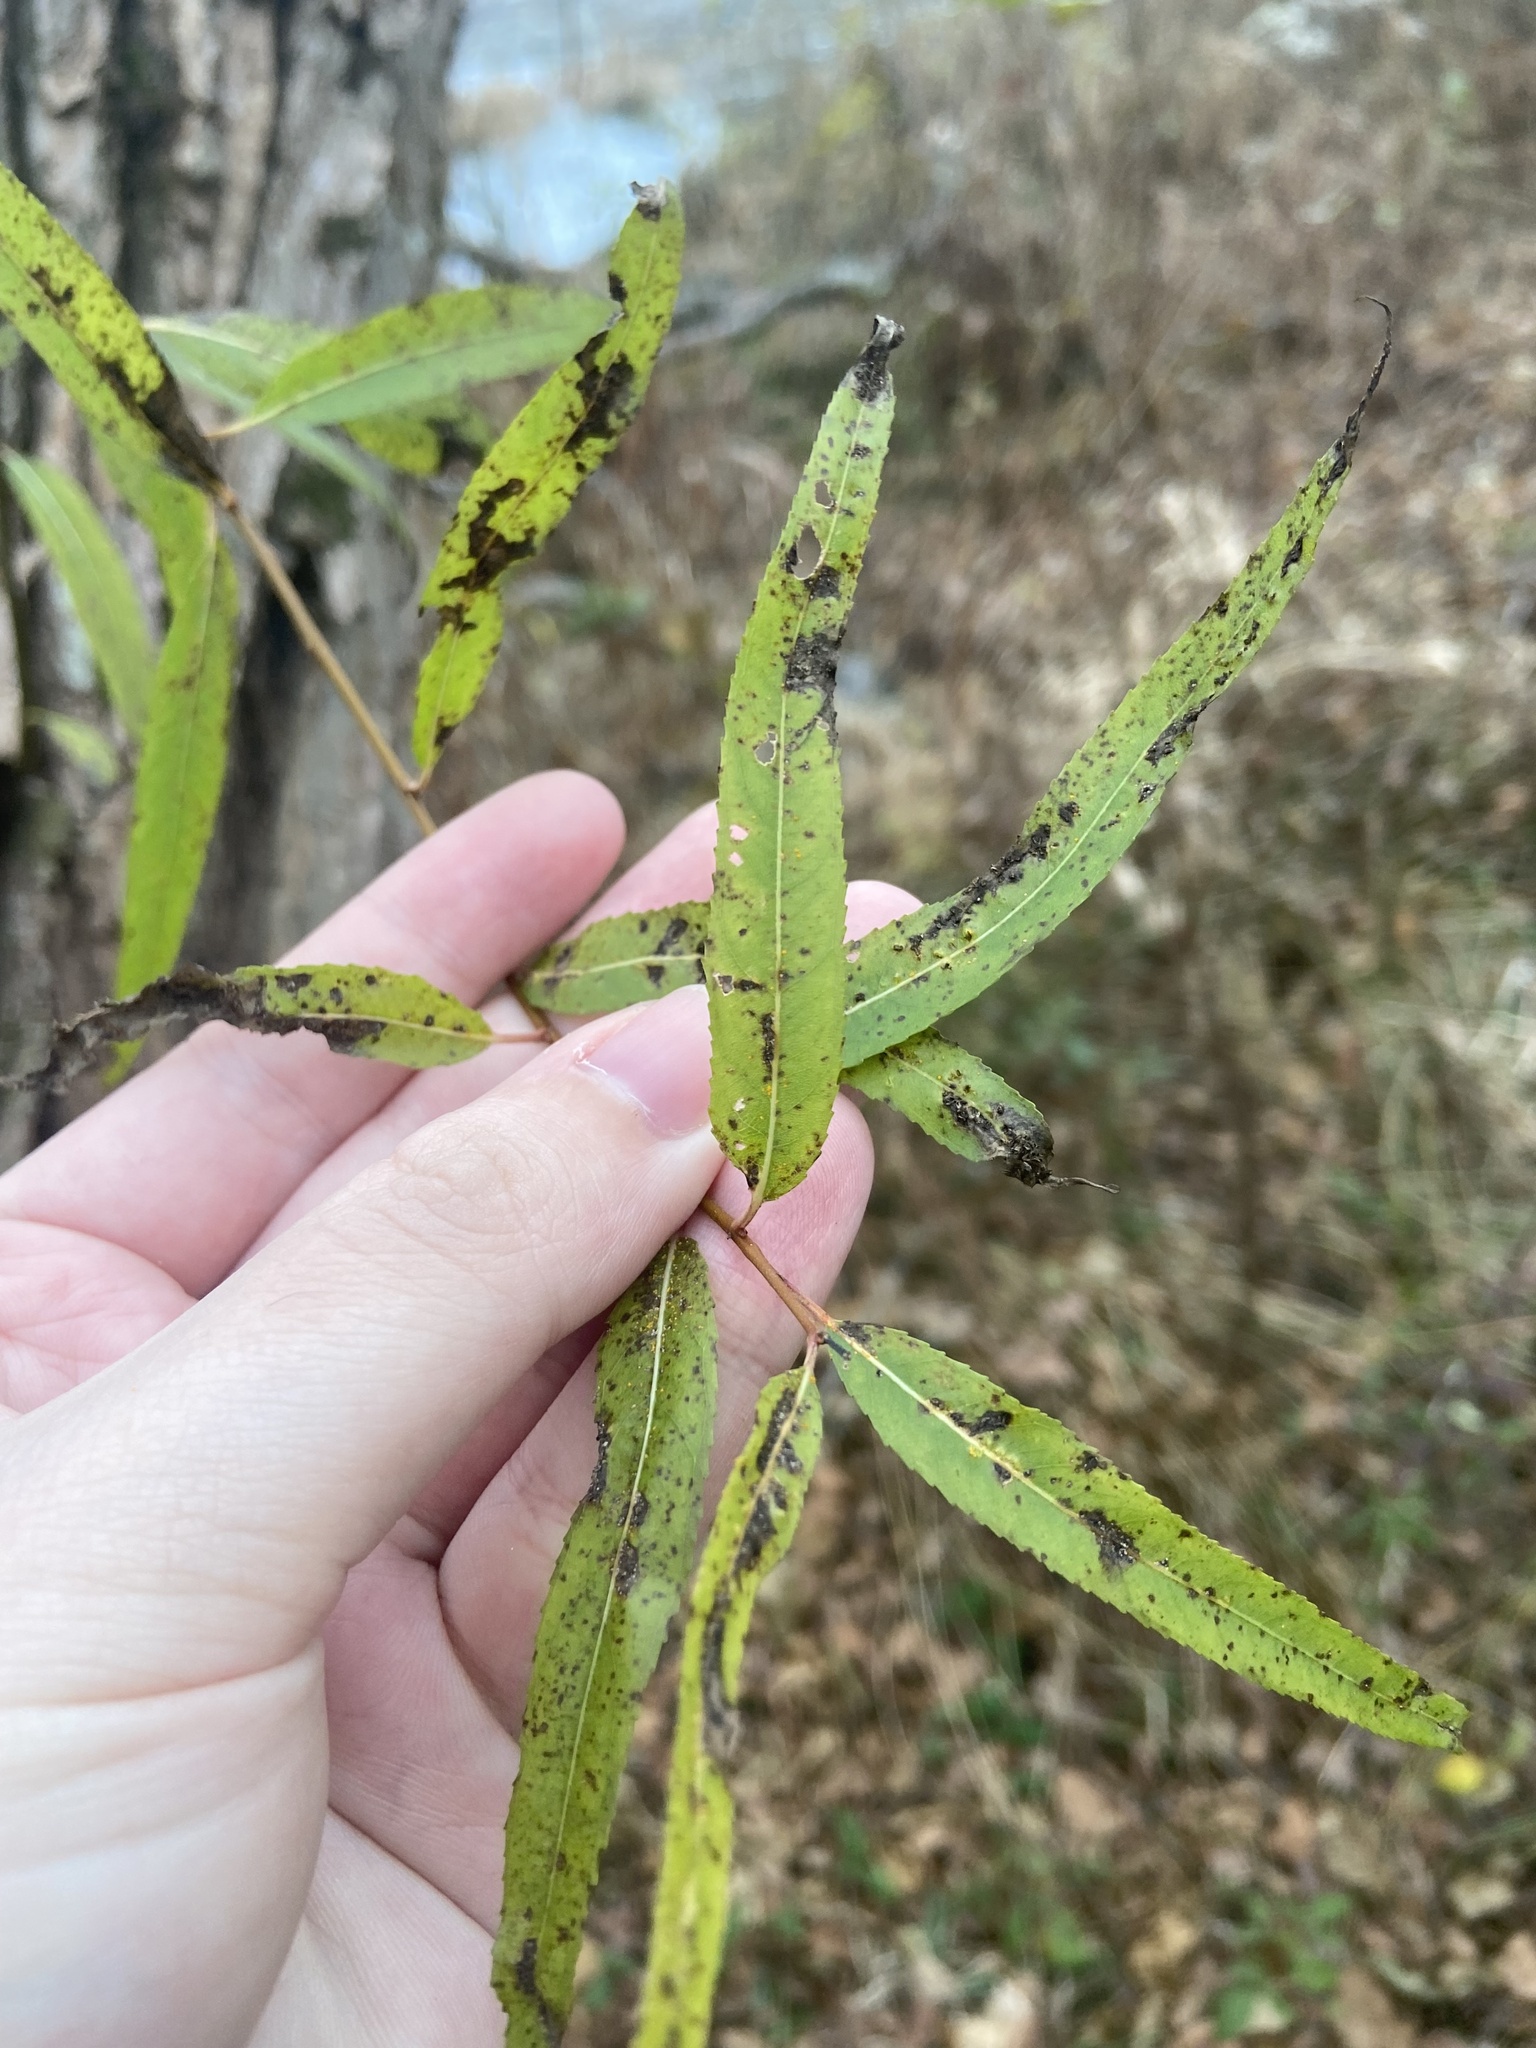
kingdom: Plantae
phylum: Tracheophyta
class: Magnoliopsida
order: Malpighiales
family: Salicaceae
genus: Salix
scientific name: Salix nigra
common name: Black willow
